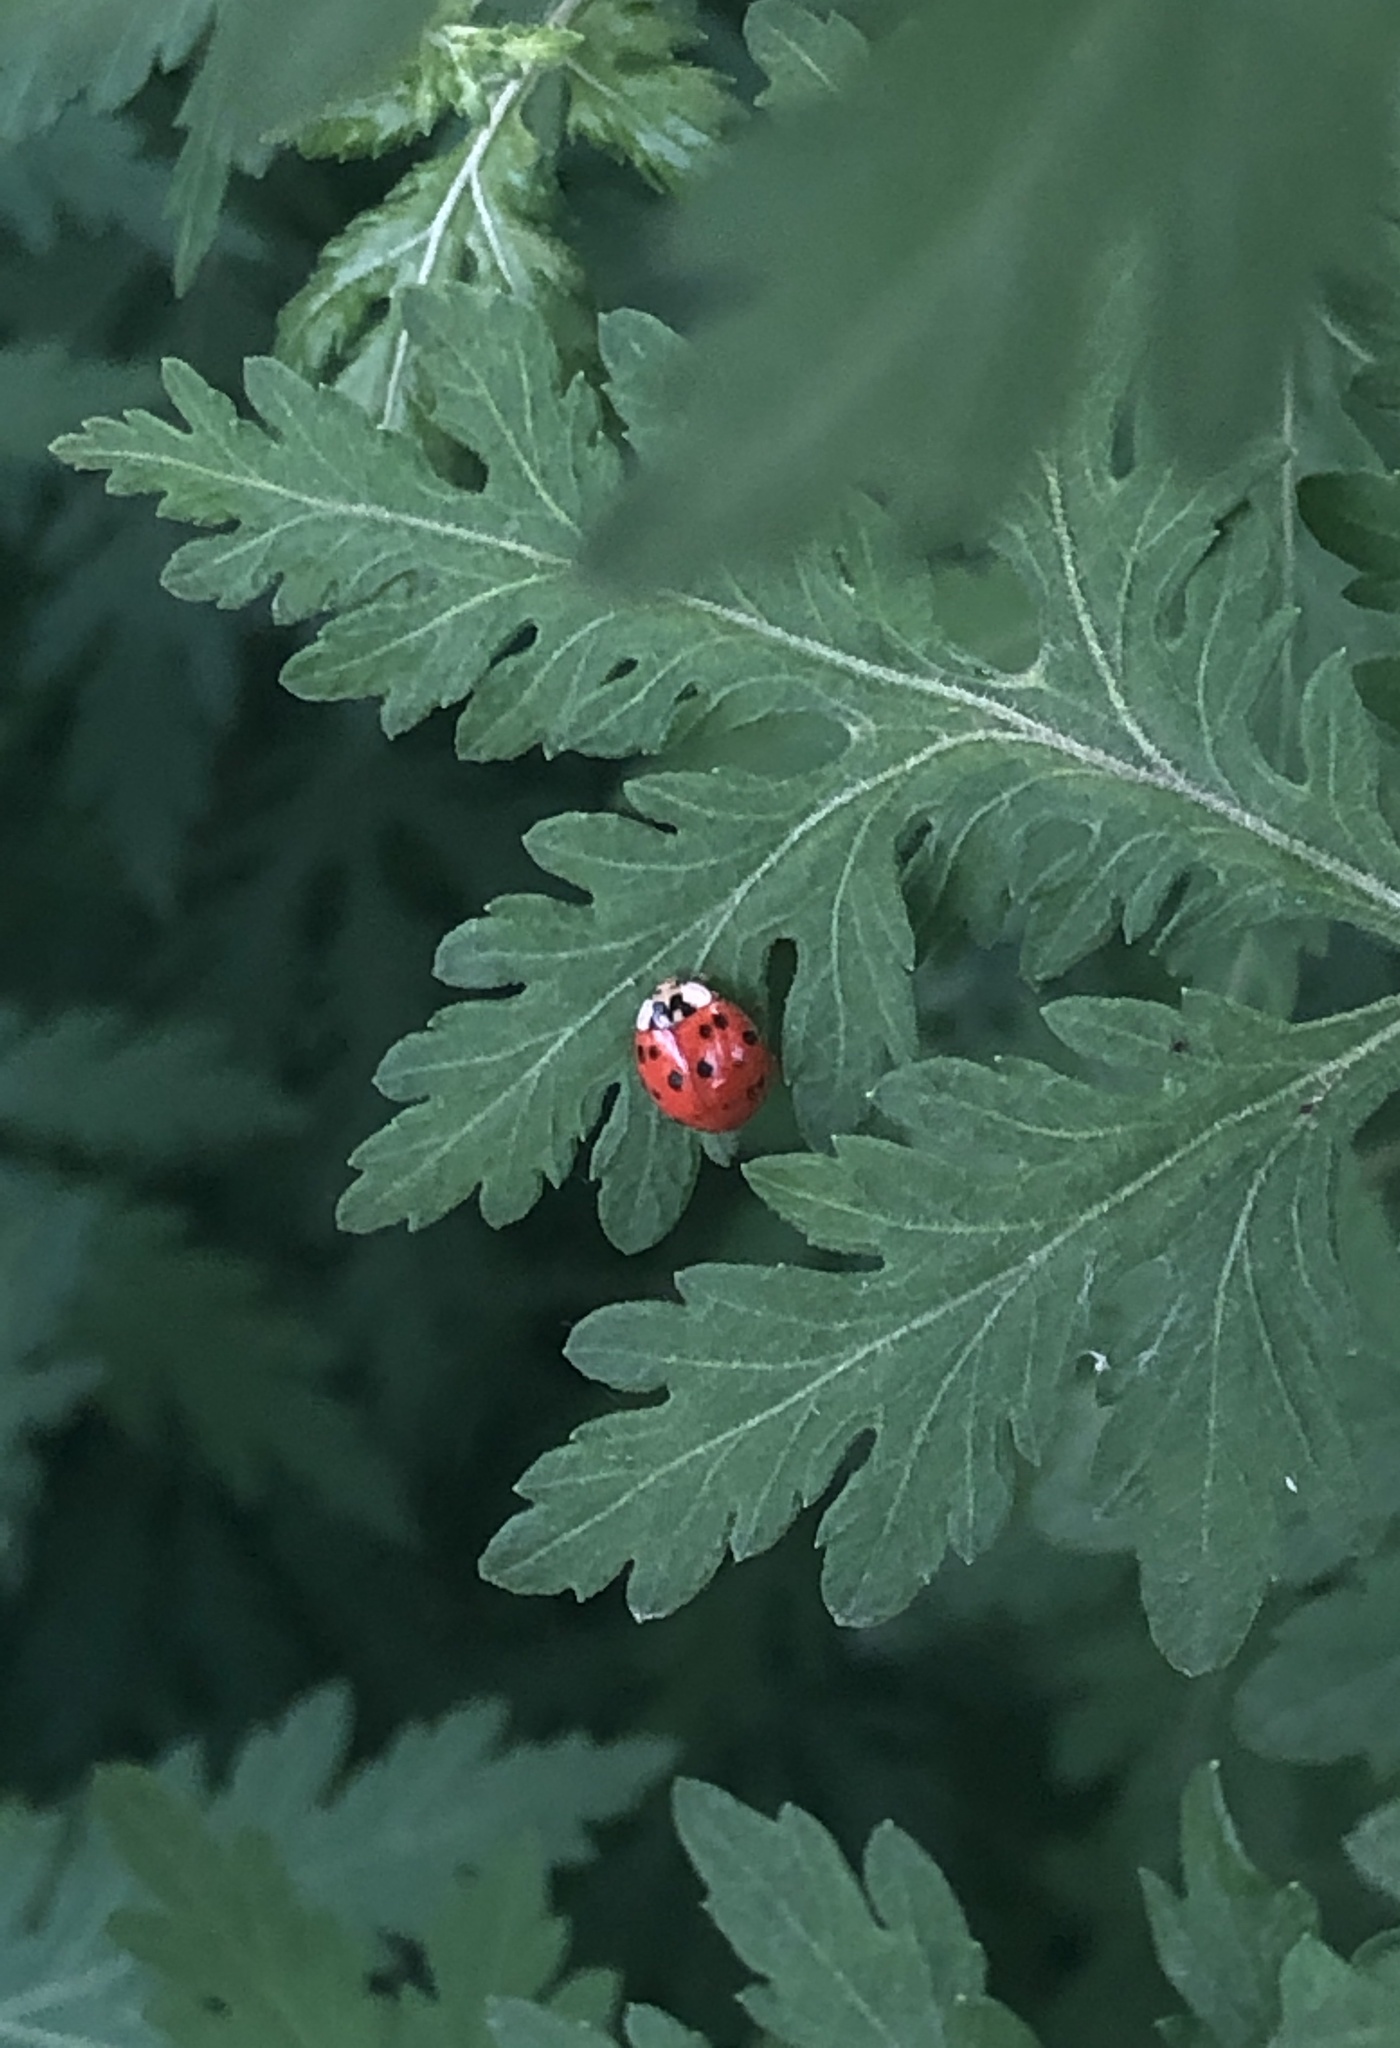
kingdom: Animalia
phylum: Arthropoda
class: Insecta
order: Coleoptera
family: Coccinellidae
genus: Harmonia
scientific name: Harmonia axyridis
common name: Harlequin ladybird
